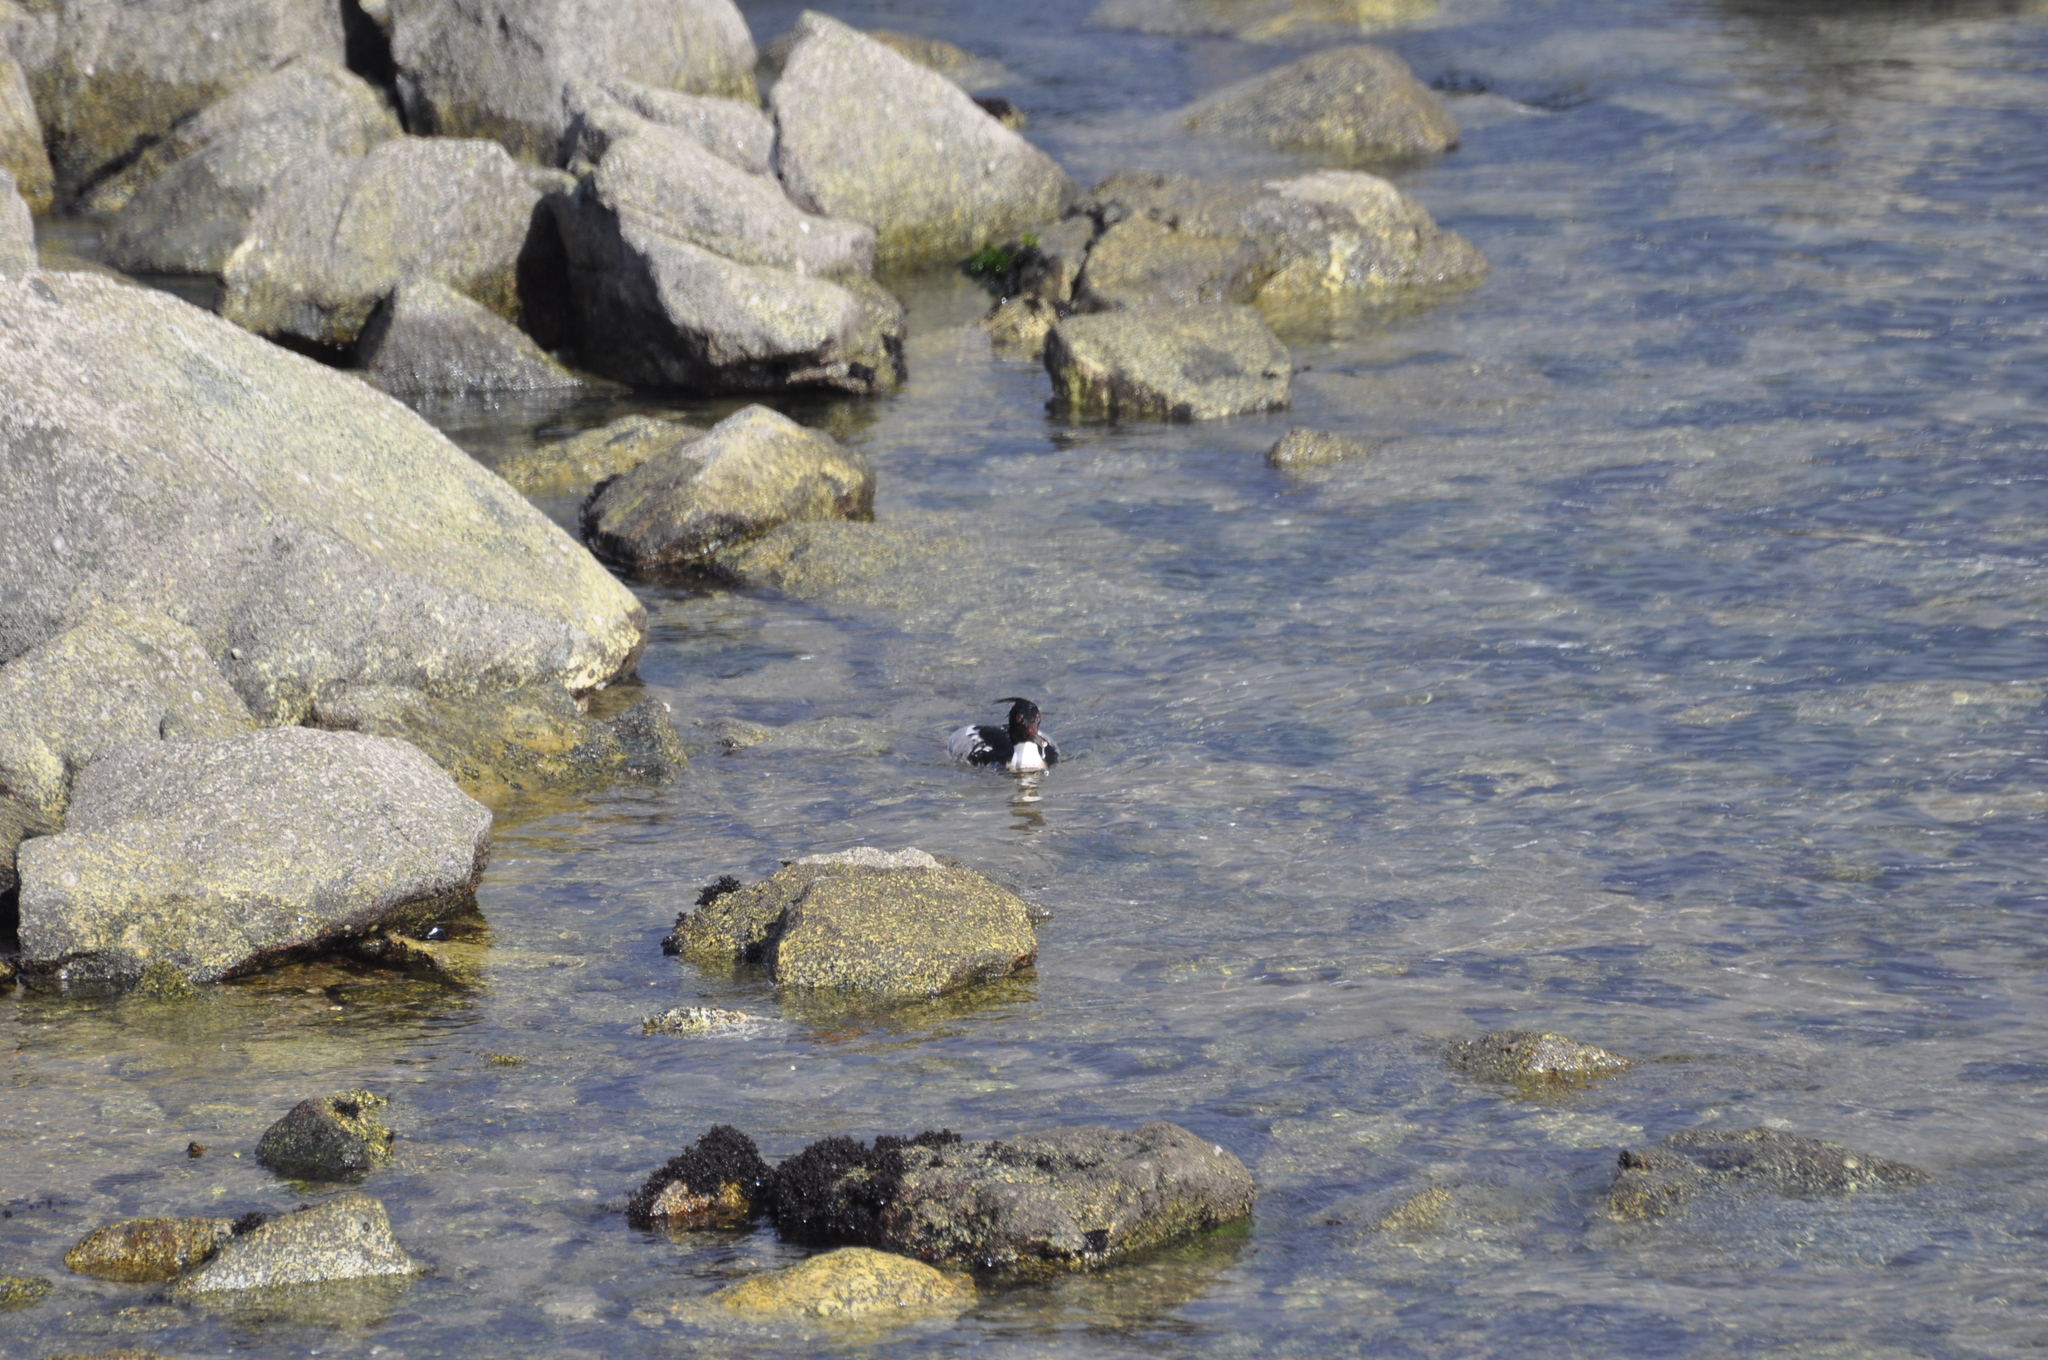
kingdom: Animalia
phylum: Chordata
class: Aves
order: Anseriformes
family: Anatidae
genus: Mergus
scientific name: Mergus serrator
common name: Red-breasted merganser
